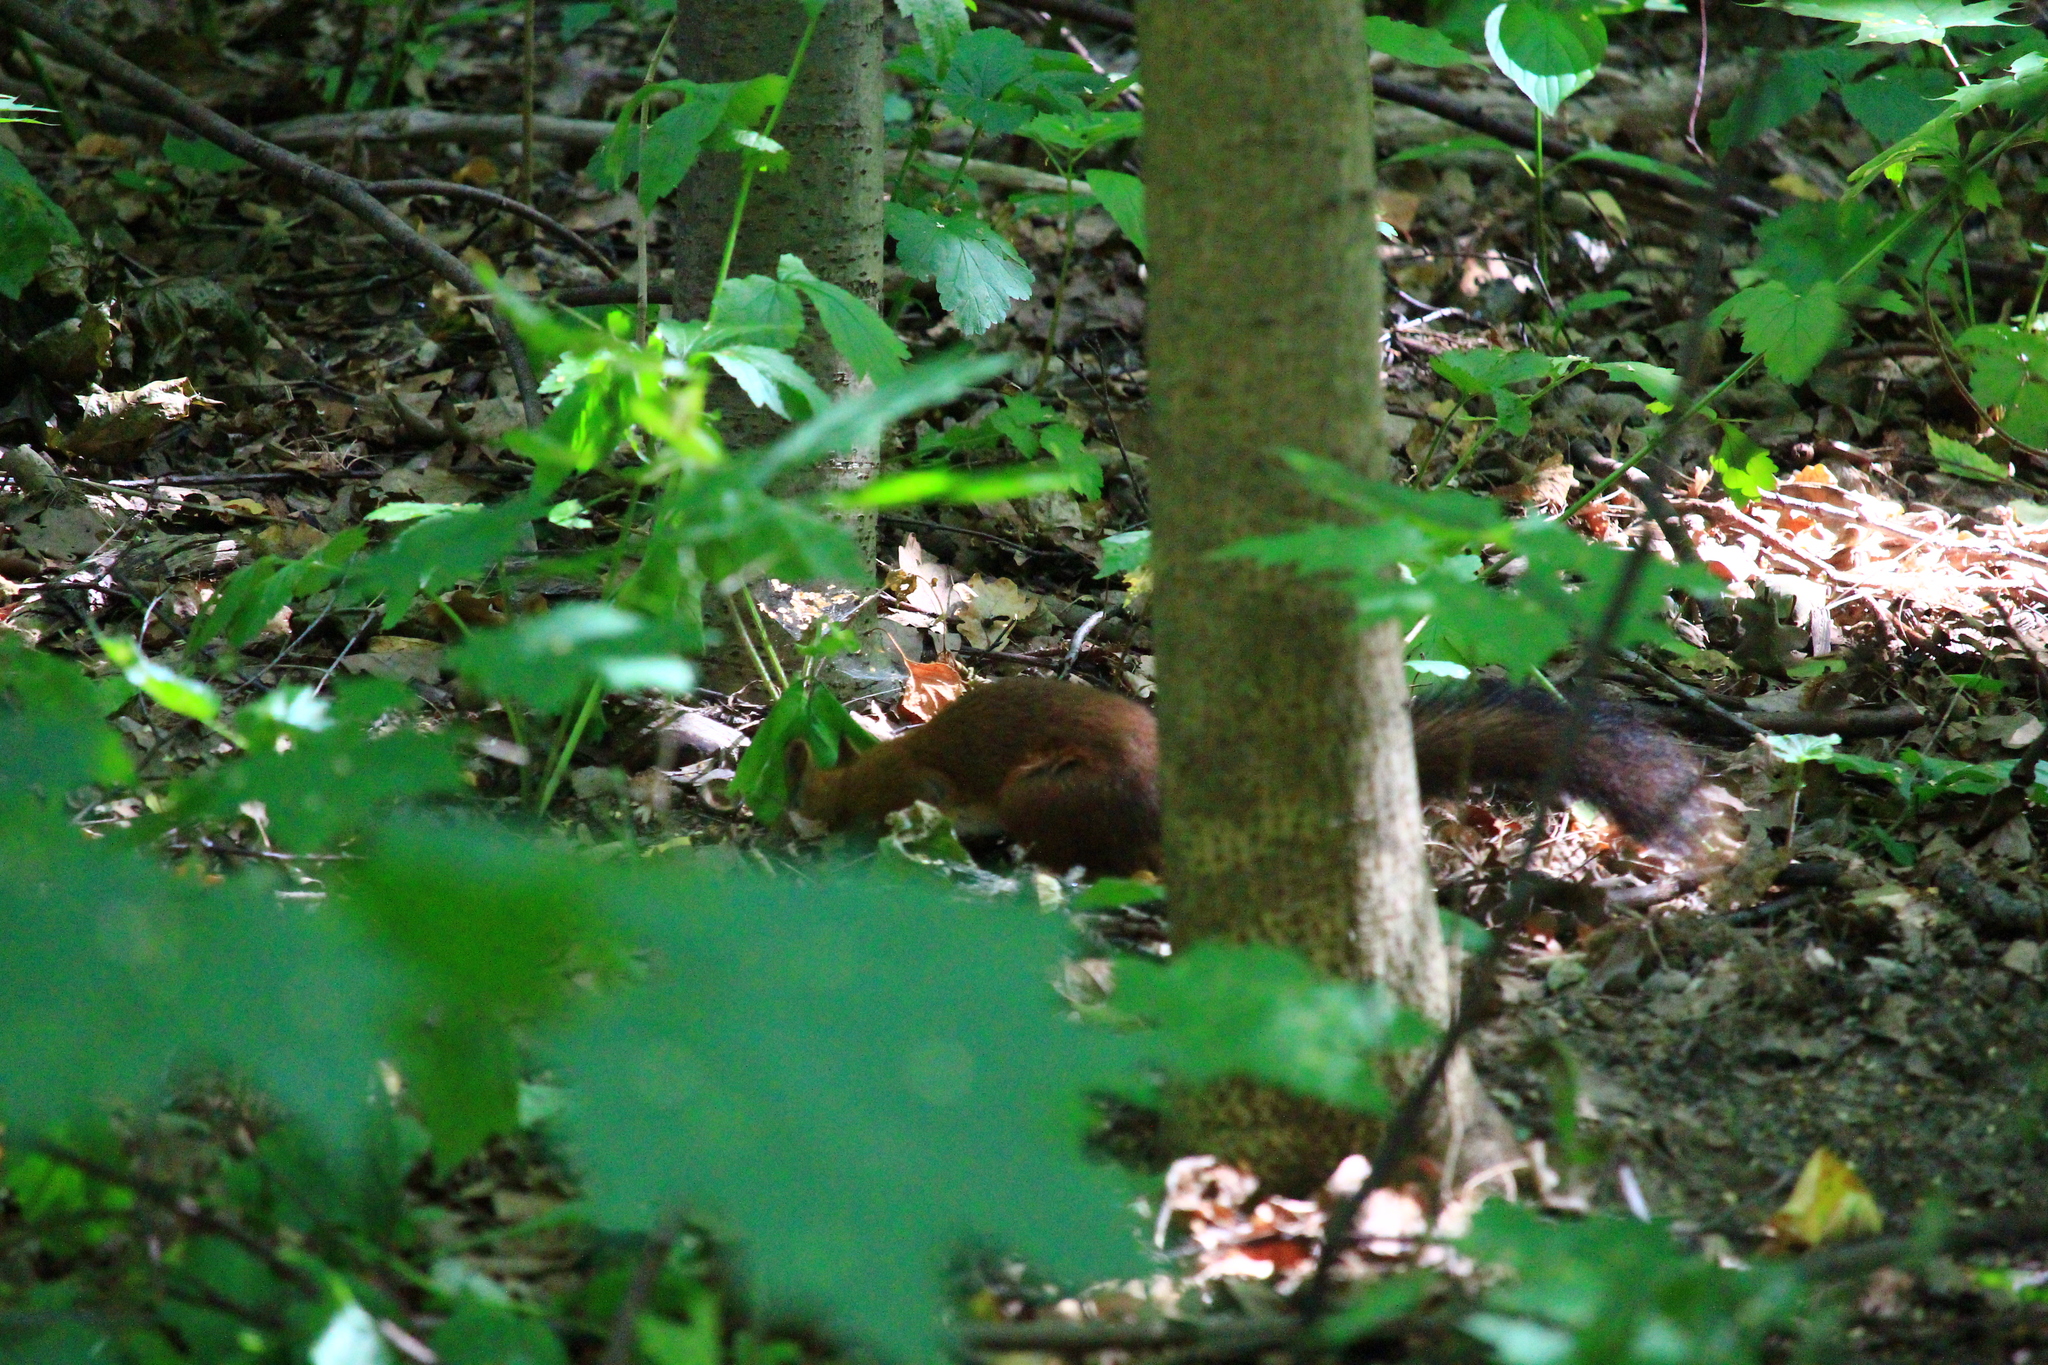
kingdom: Animalia
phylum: Chordata
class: Mammalia
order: Rodentia
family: Sciuridae
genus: Sciurus
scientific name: Sciurus vulgaris
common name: Eurasian red squirrel
